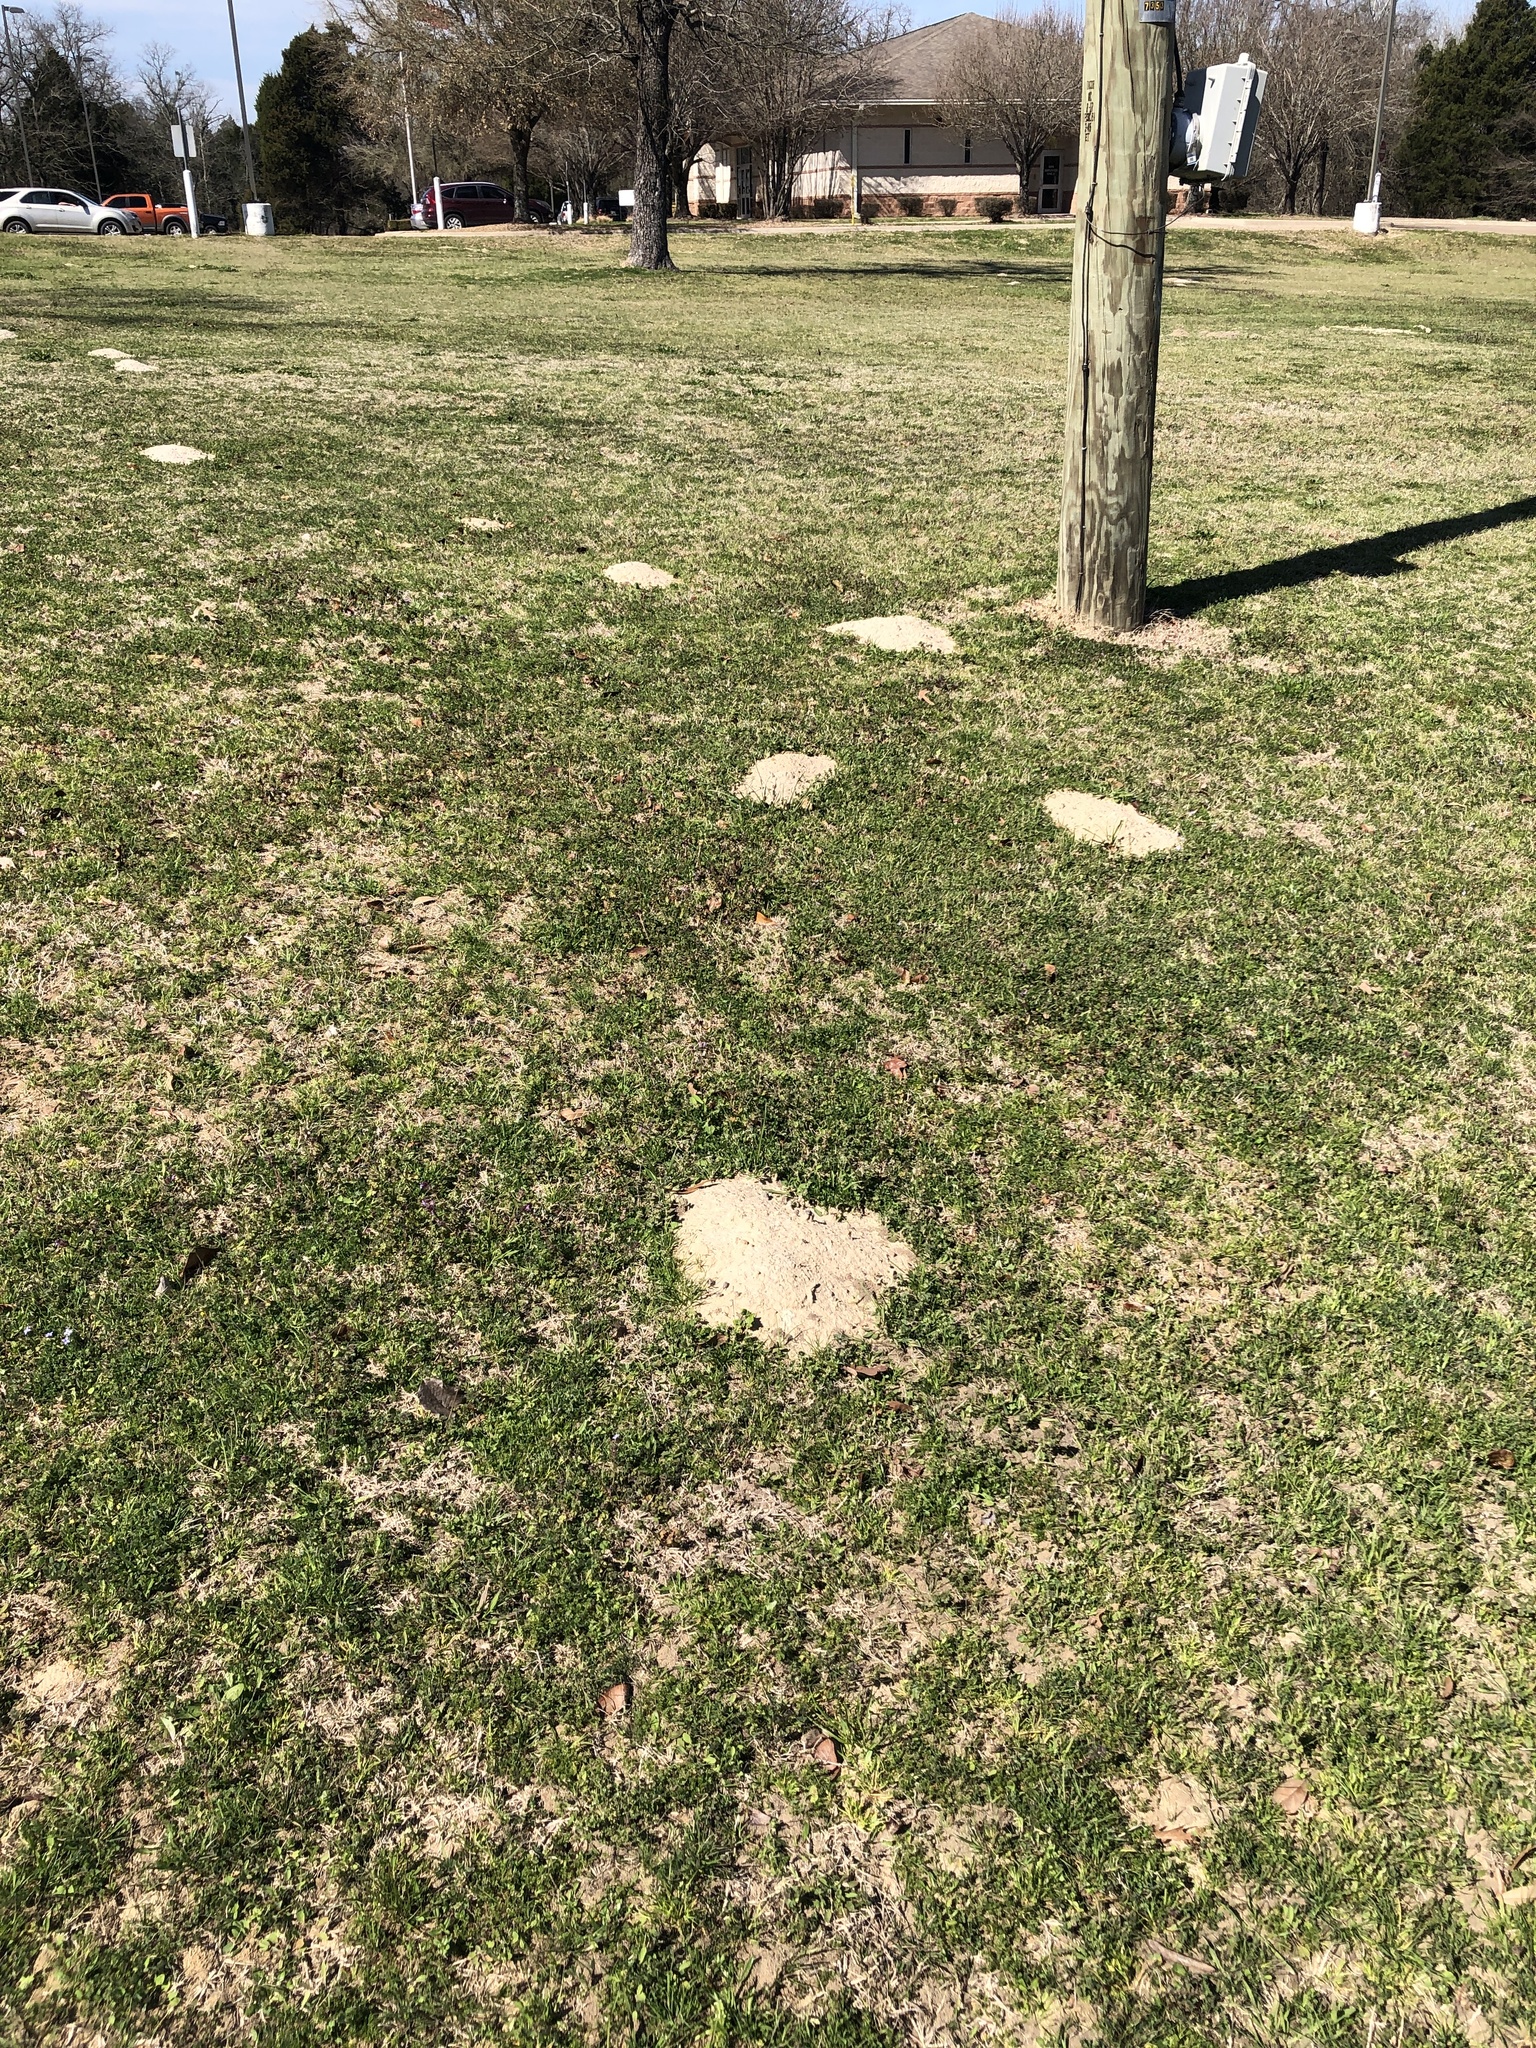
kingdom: Animalia
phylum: Chordata
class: Mammalia
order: Rodentia
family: Geomyidae
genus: Geomys
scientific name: Geomys breviceps
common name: Baird's pocket gopher
